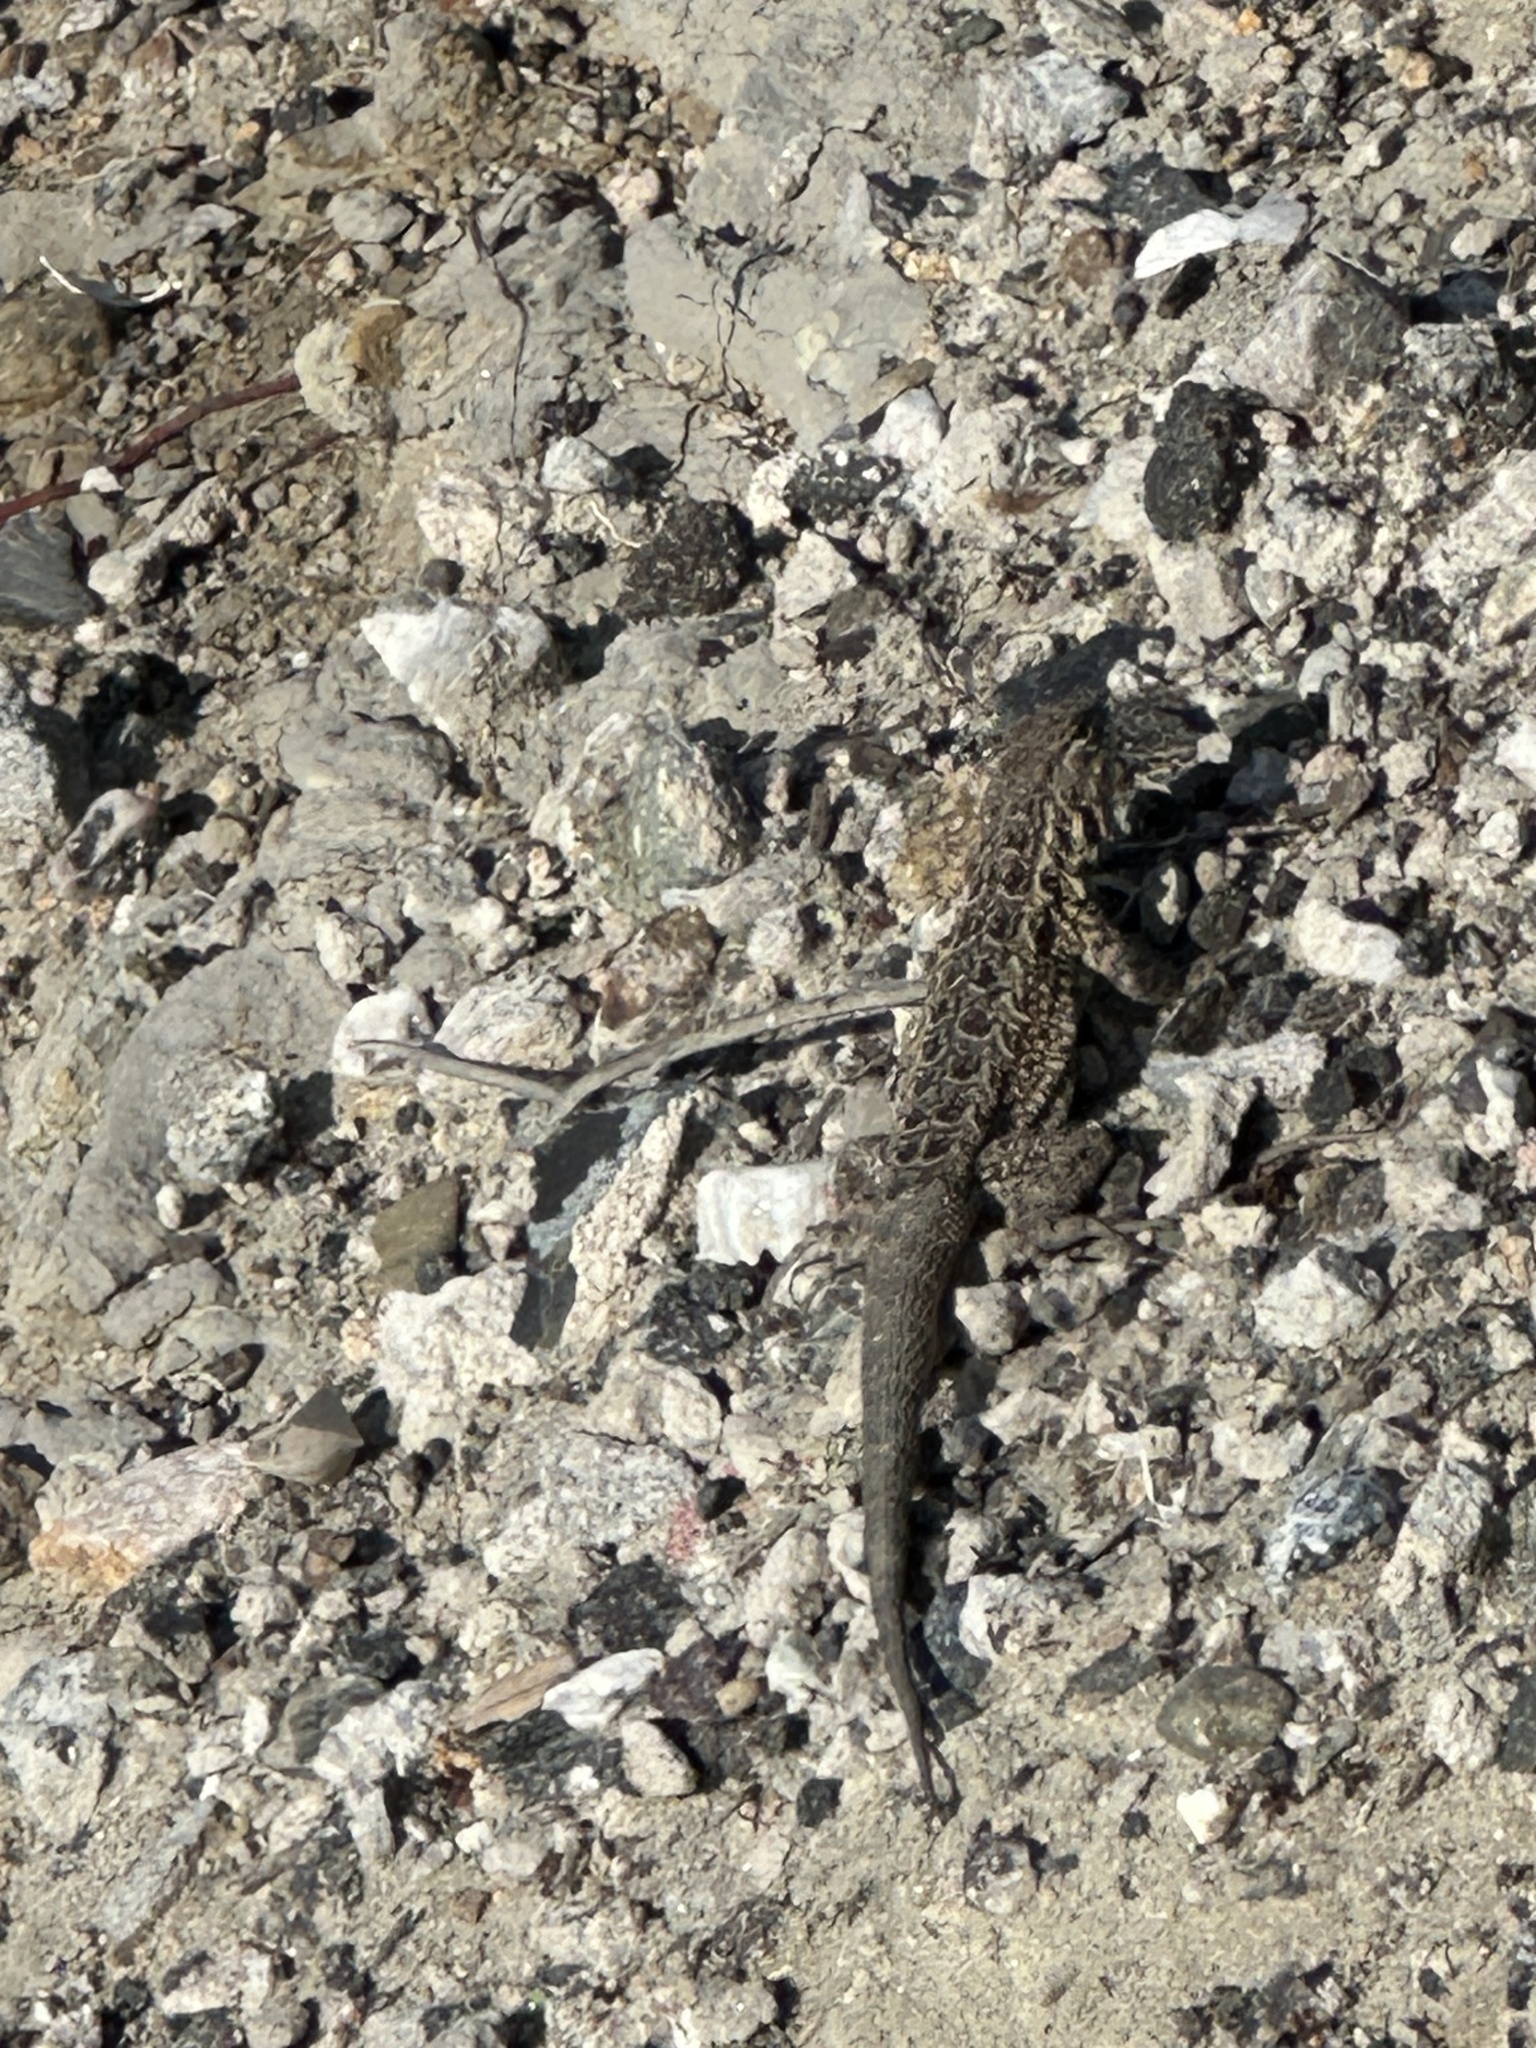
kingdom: Animalia
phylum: Chordata
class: Squamata
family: Phrynosomatidae
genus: Uta
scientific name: Uta stansburiana
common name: Side-blotched lizard
